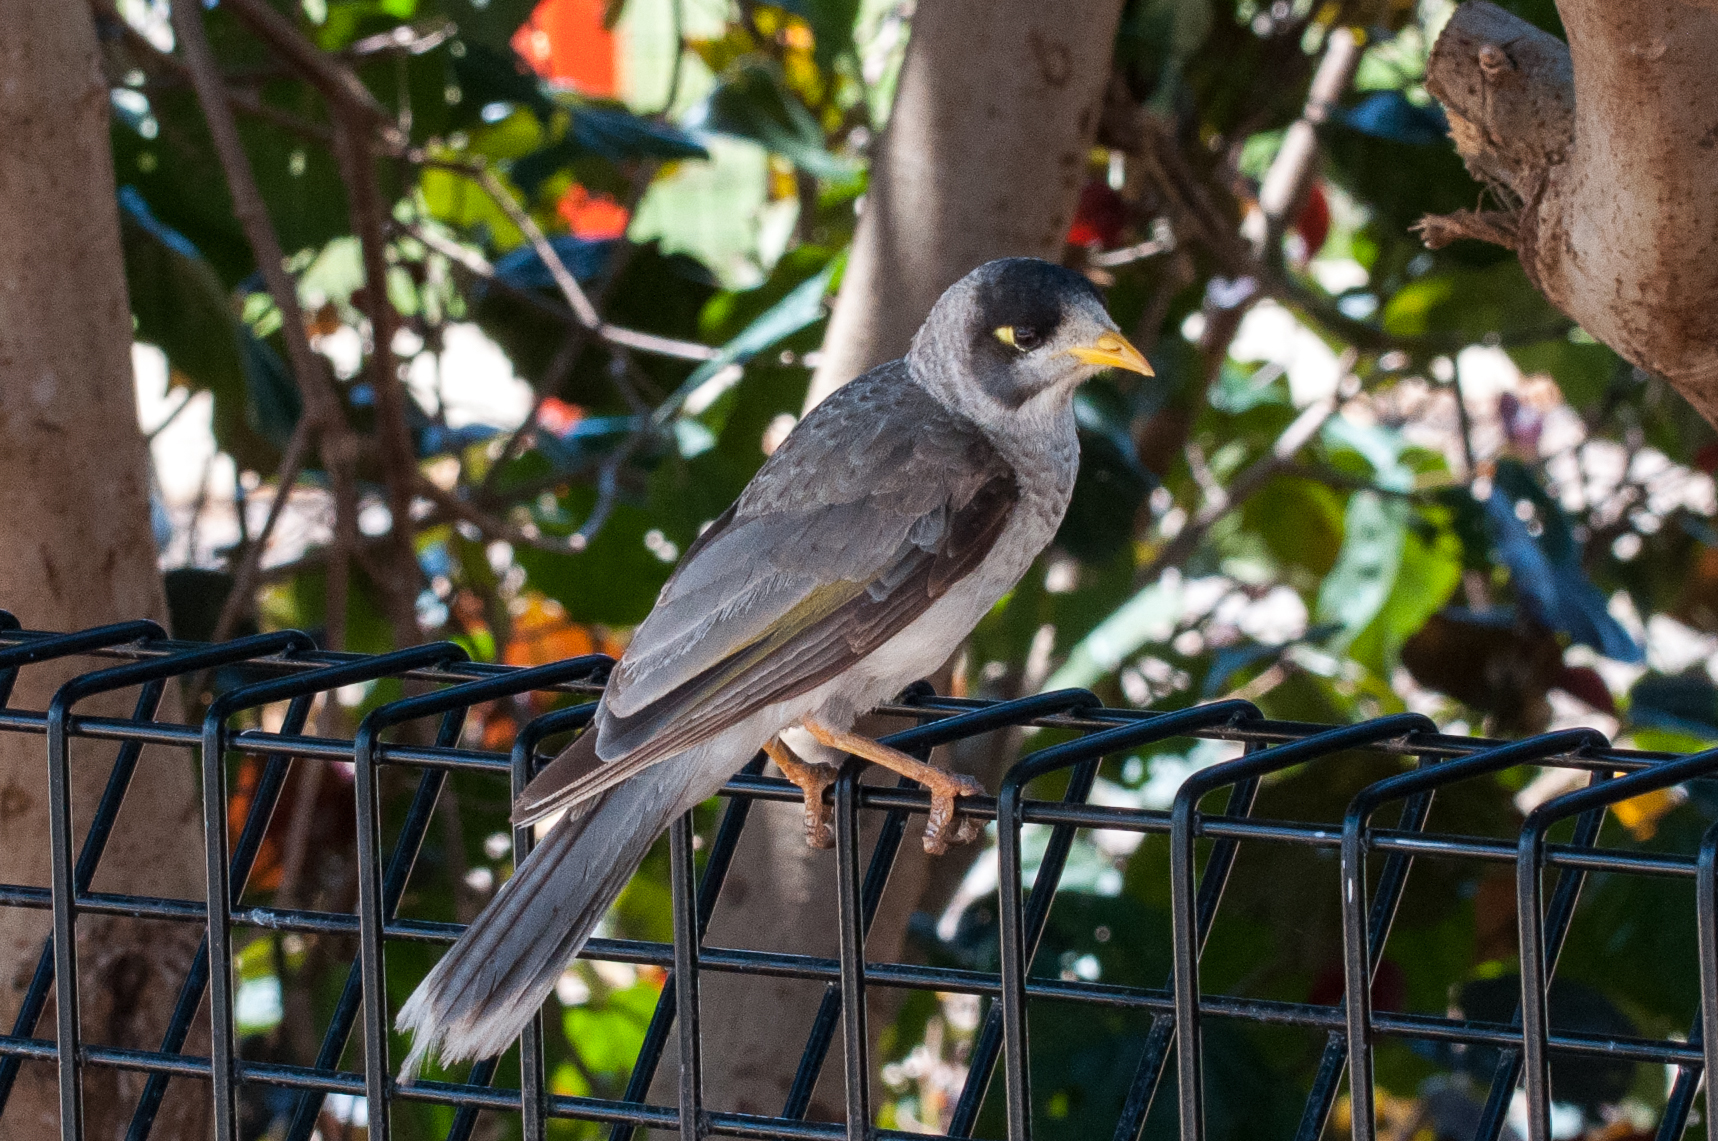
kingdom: Animalia
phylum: Chordata
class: Aves
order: Passeriformes
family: Meliphagidae
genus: Manorina
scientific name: Manorina melanocephala
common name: Noisy miner
